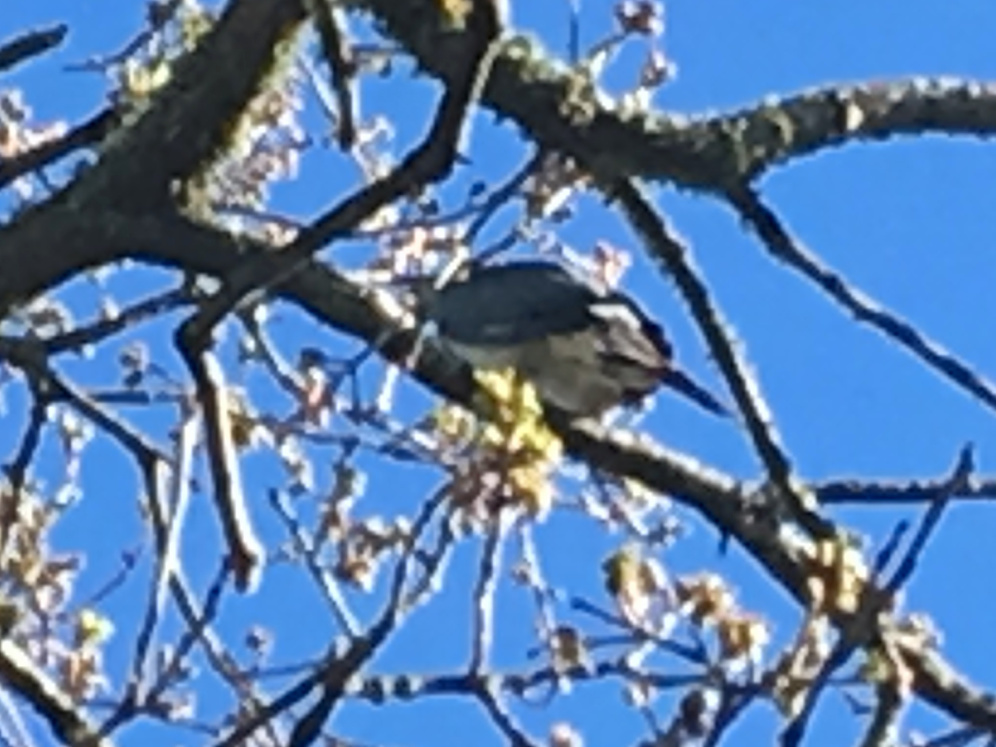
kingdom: Animalia
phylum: Chordata
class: Aves
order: Columbiformes
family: Columbidae
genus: Hemiphaga
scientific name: Hemiphaga novaeseelandiae
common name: New zealand pigeon
